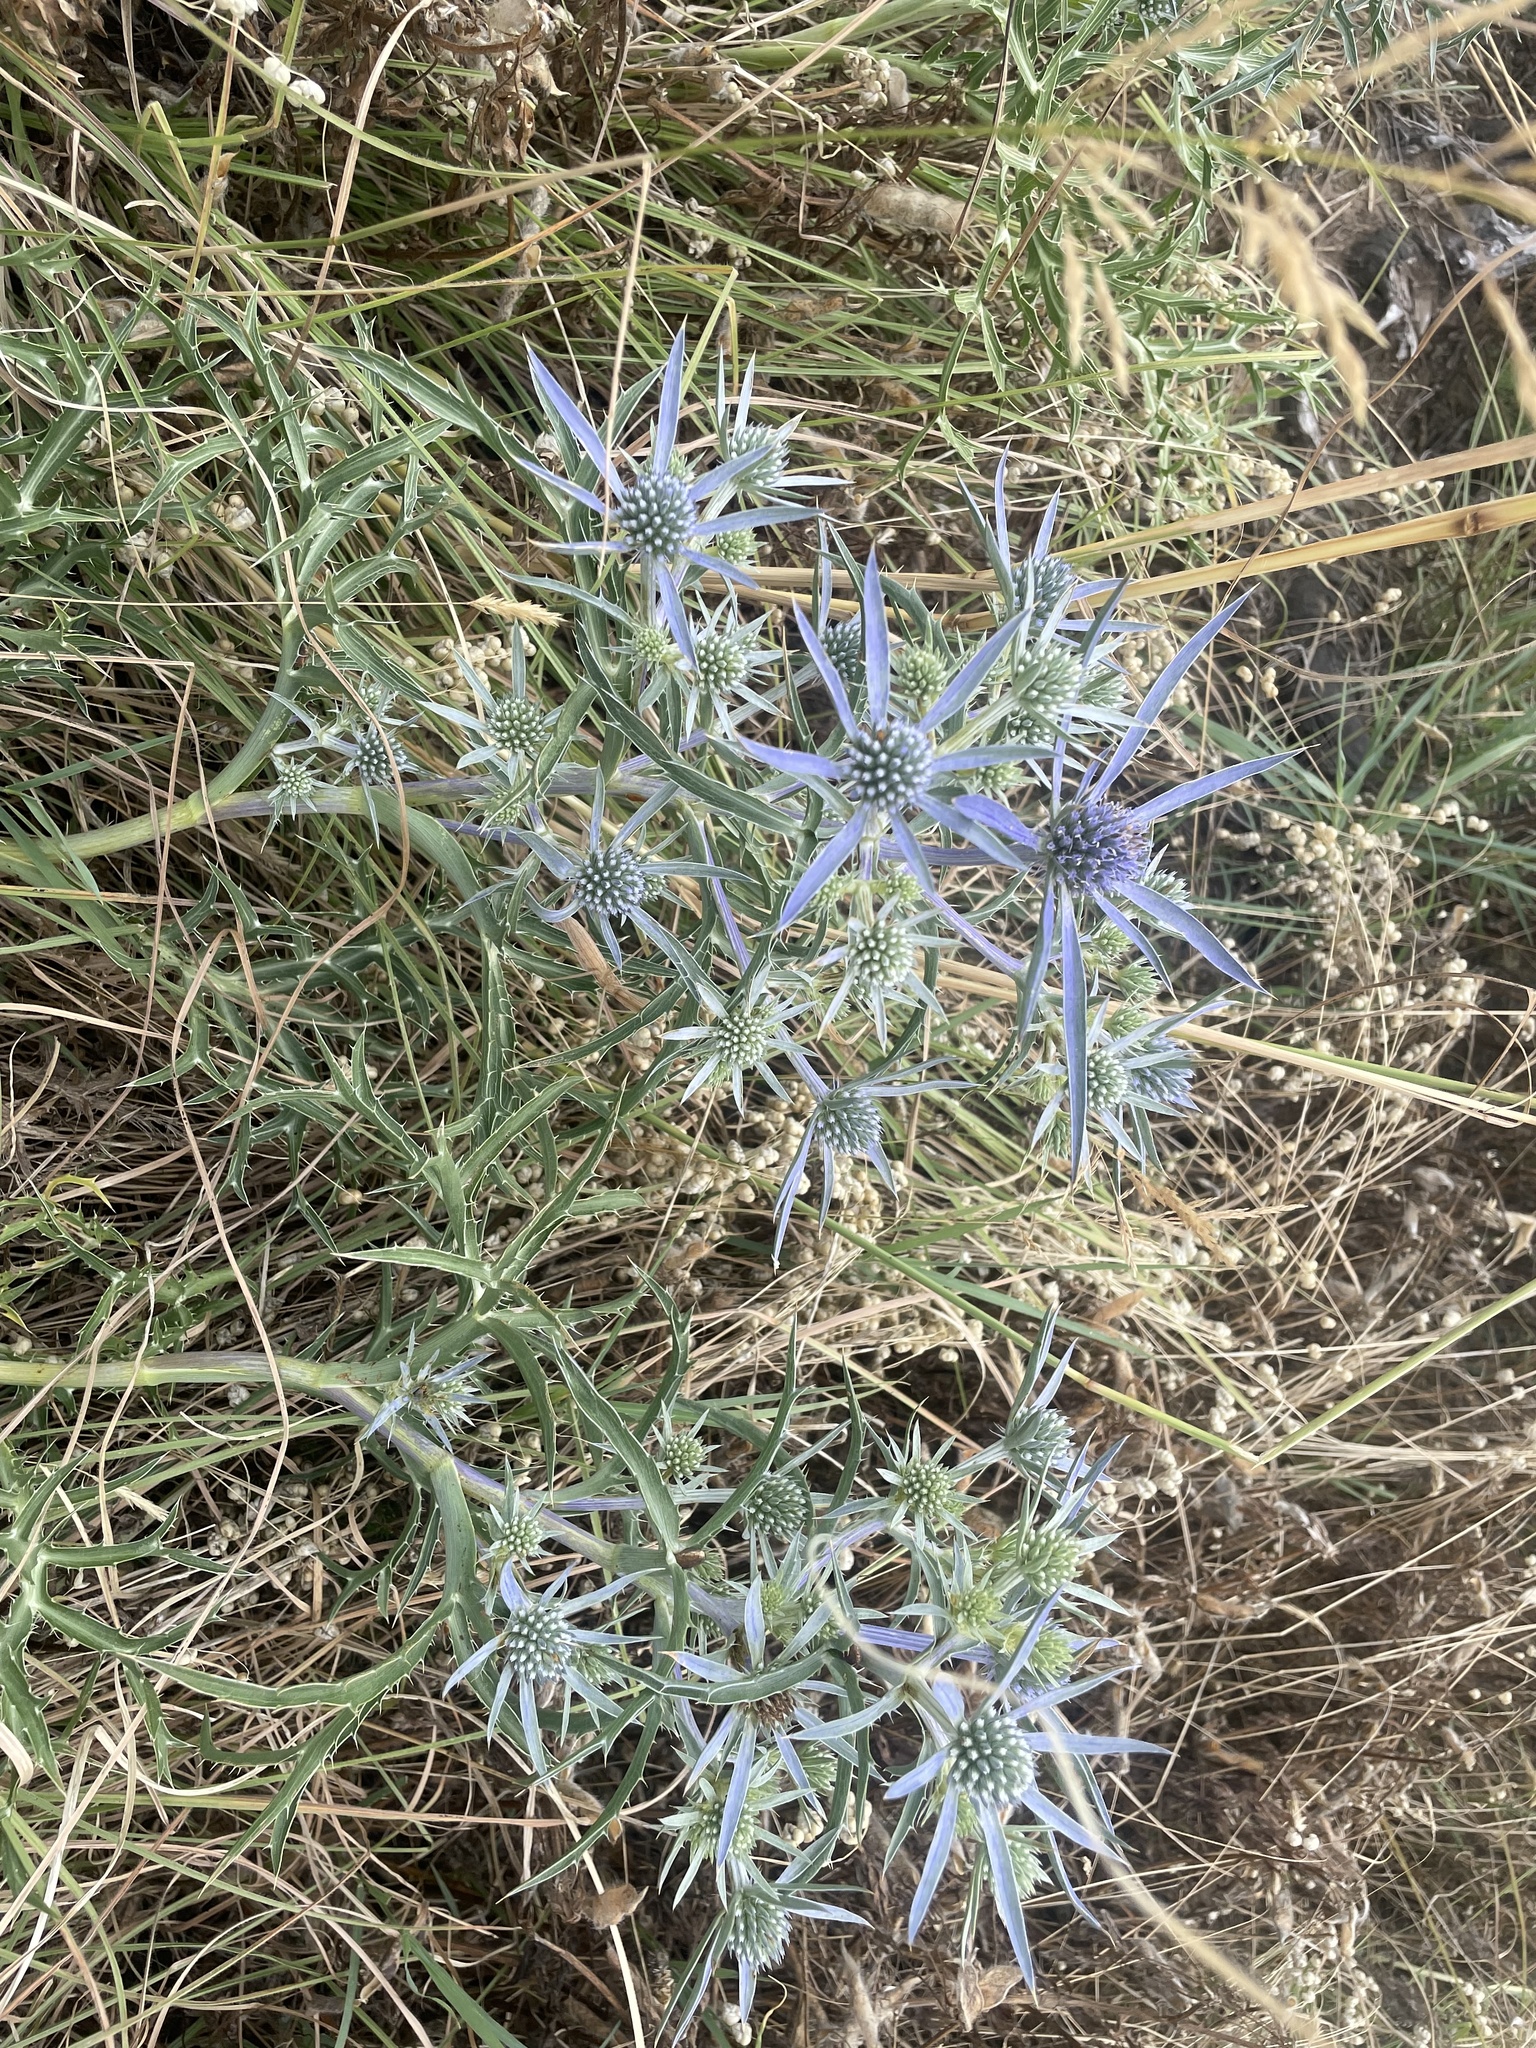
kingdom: Plantae
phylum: Tracheophyta
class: Magnoliopsida
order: Apiales
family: Apiaceae
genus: Eryngium
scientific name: Eryngium amethystinum
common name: Amethyst eryngo
